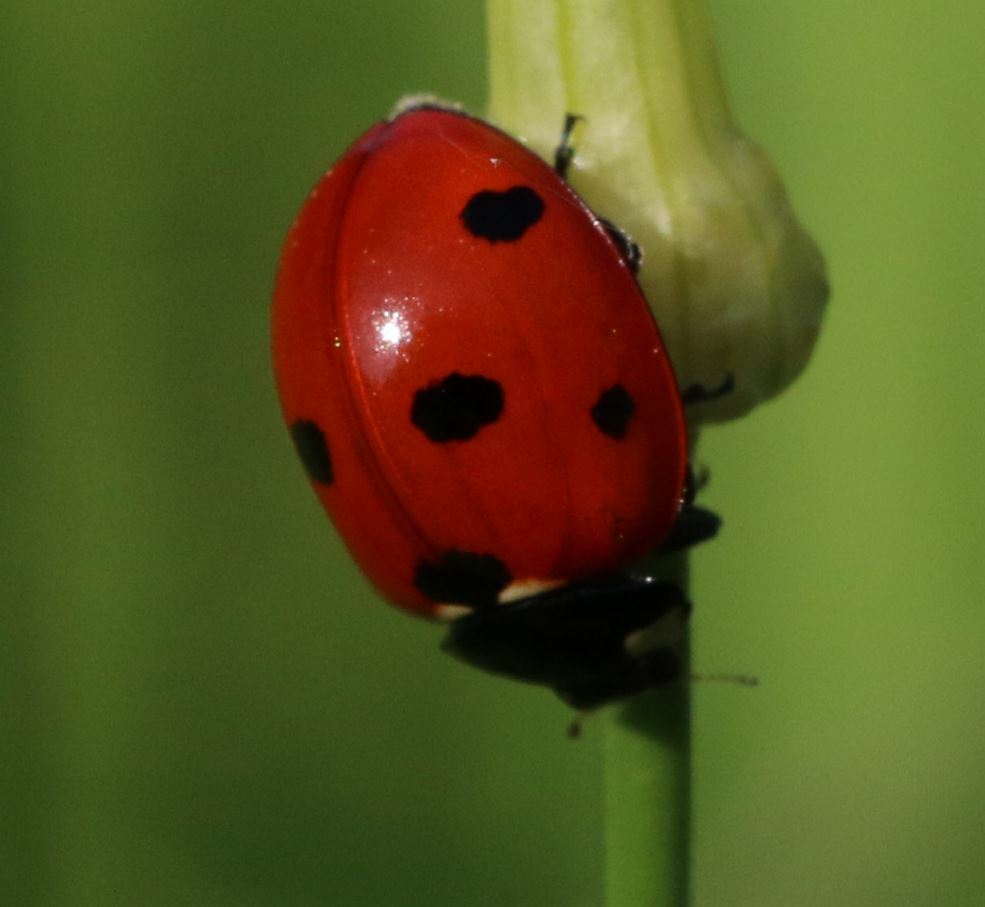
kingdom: Animalia
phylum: Arthropoda
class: Insecta
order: Coleoptera
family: Coccinellidae
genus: Coccinella
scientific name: Coccinella septempunctata
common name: Sevenspotted lady beetle
